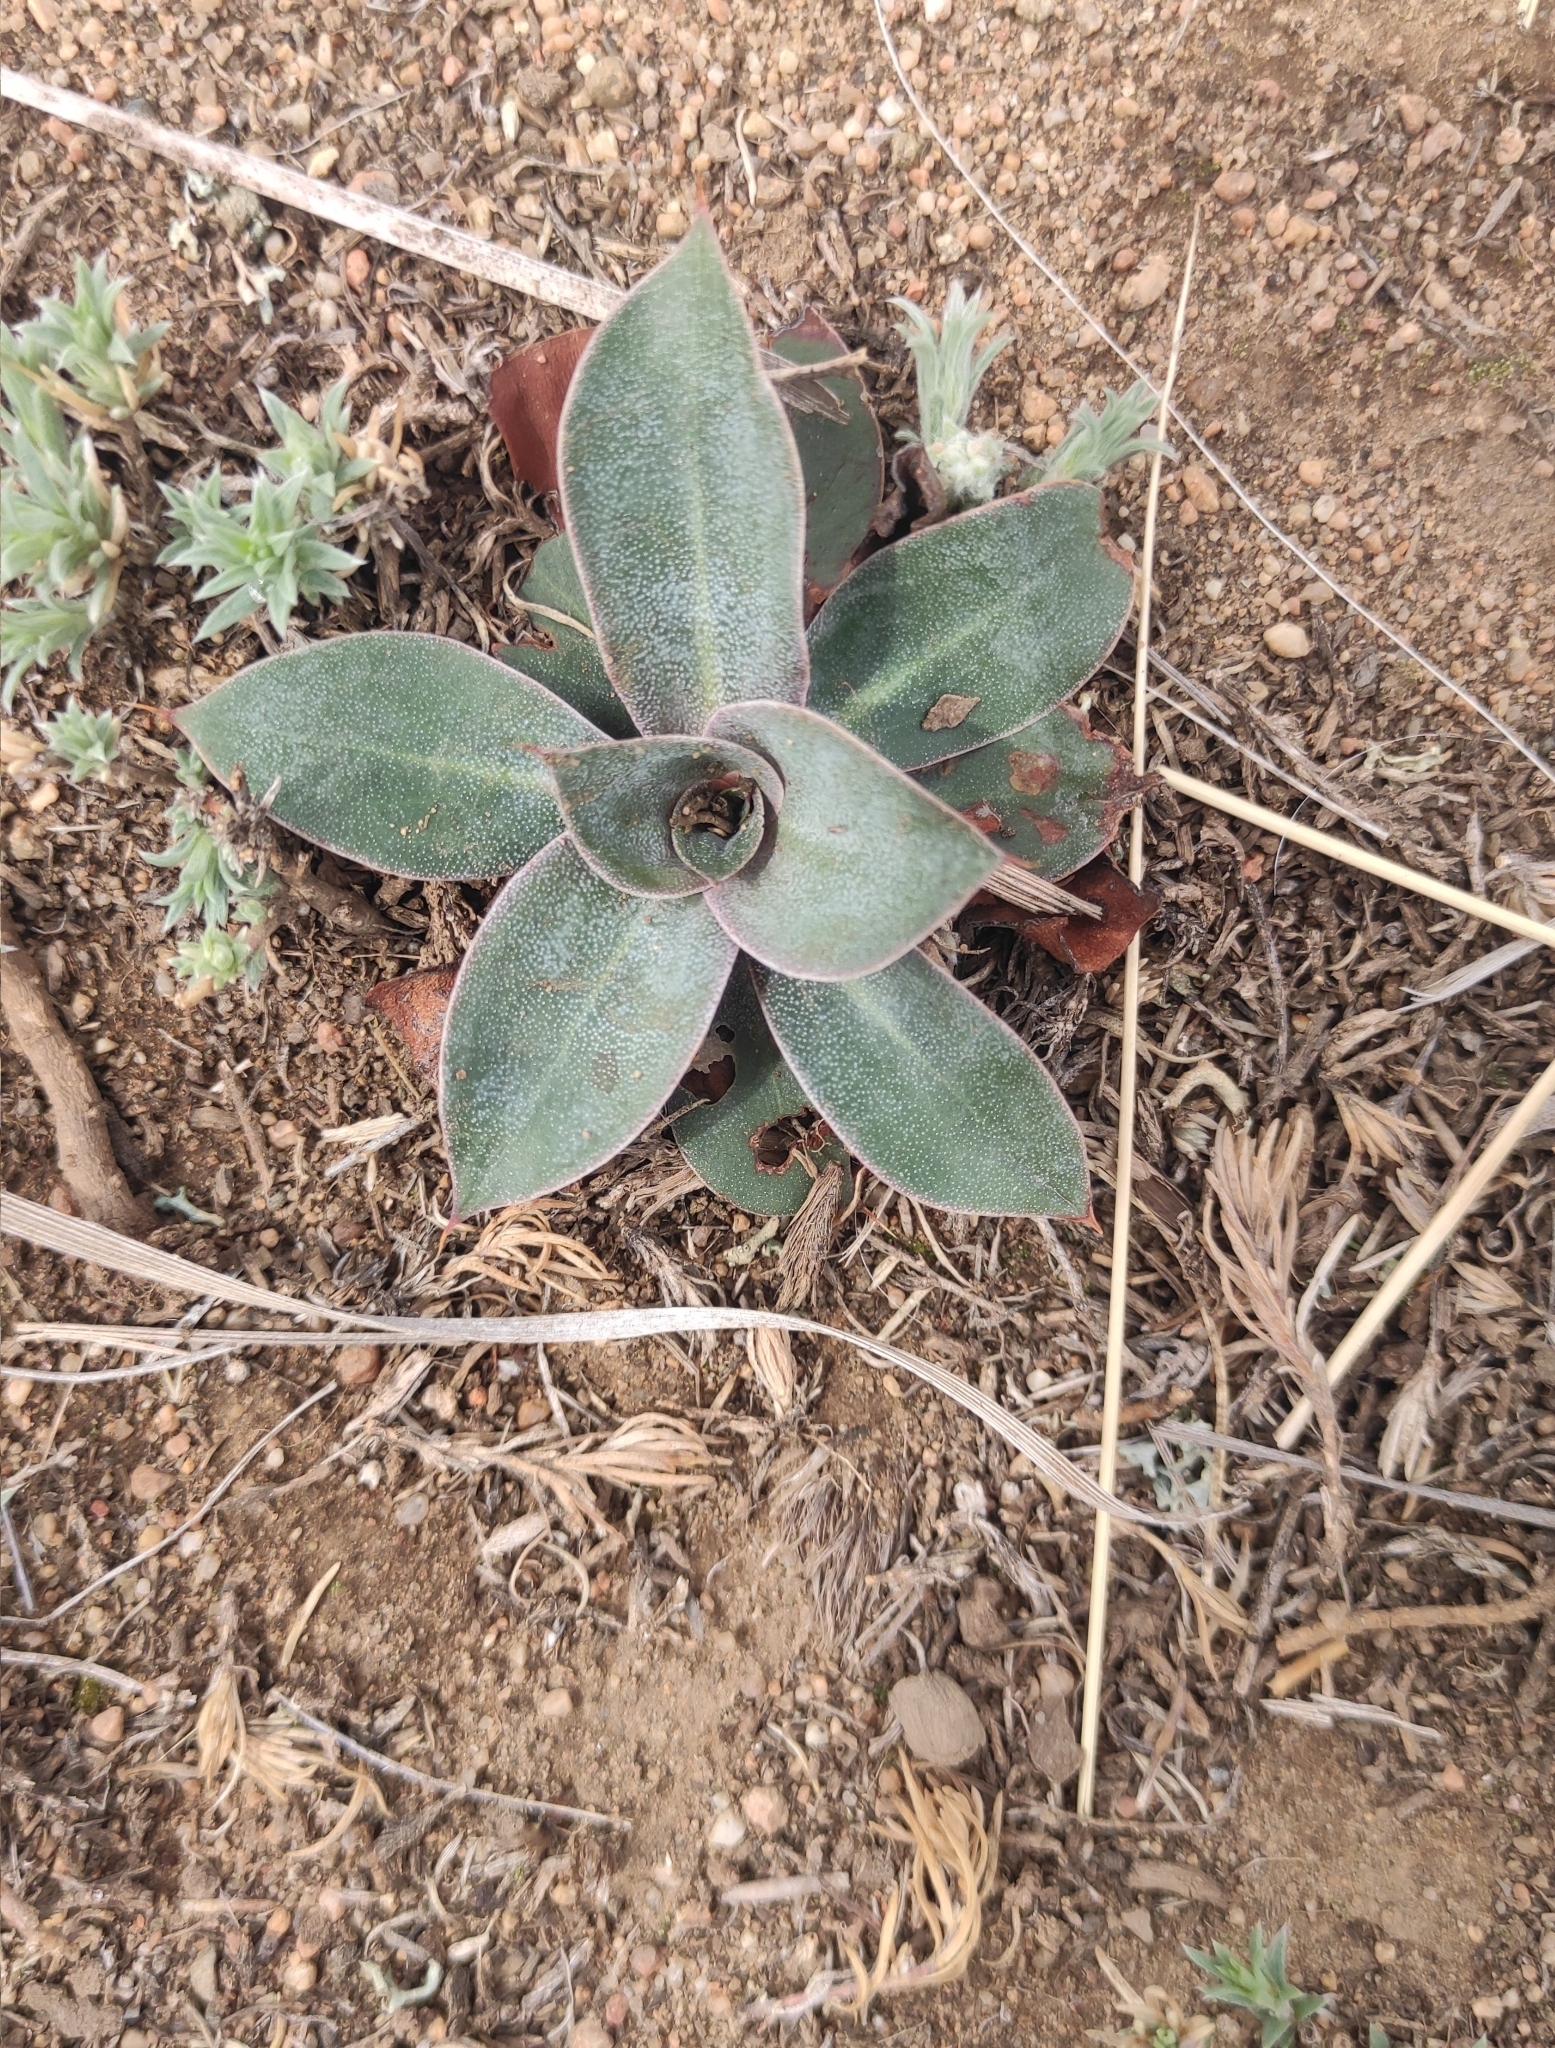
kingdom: Plantae
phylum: Tracheophyta
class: Magnoliopsida
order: Caryophyllales
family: Plumbaginaceae
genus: Goniolimon
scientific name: Goniolimon speciosum
